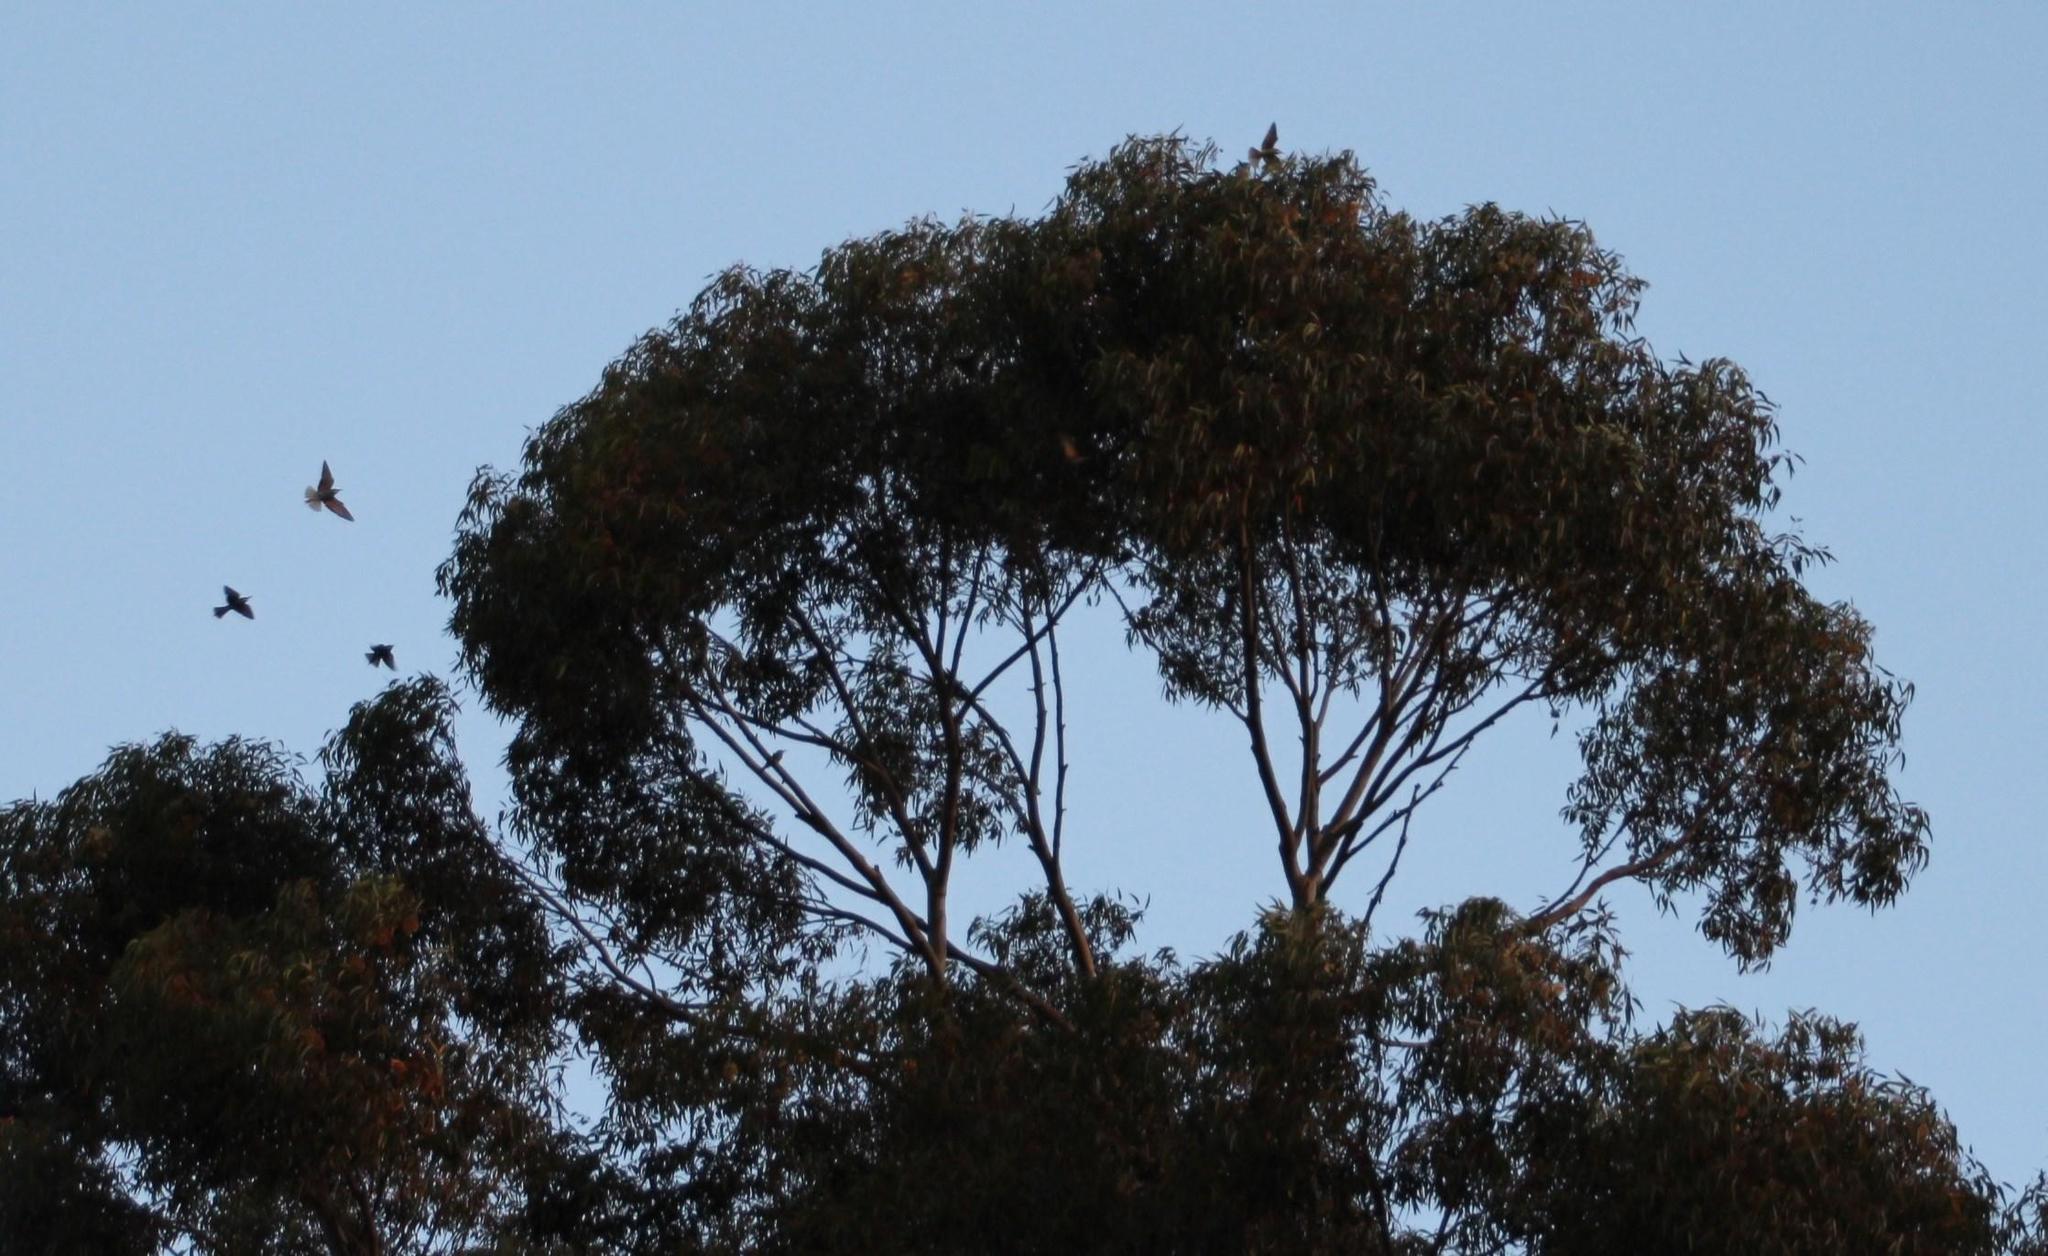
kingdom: Animalia
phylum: Chordata
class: Aves
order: Coraciiformes
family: Meropidae
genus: Merops
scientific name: Merops apiaster
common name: European bee-eater
